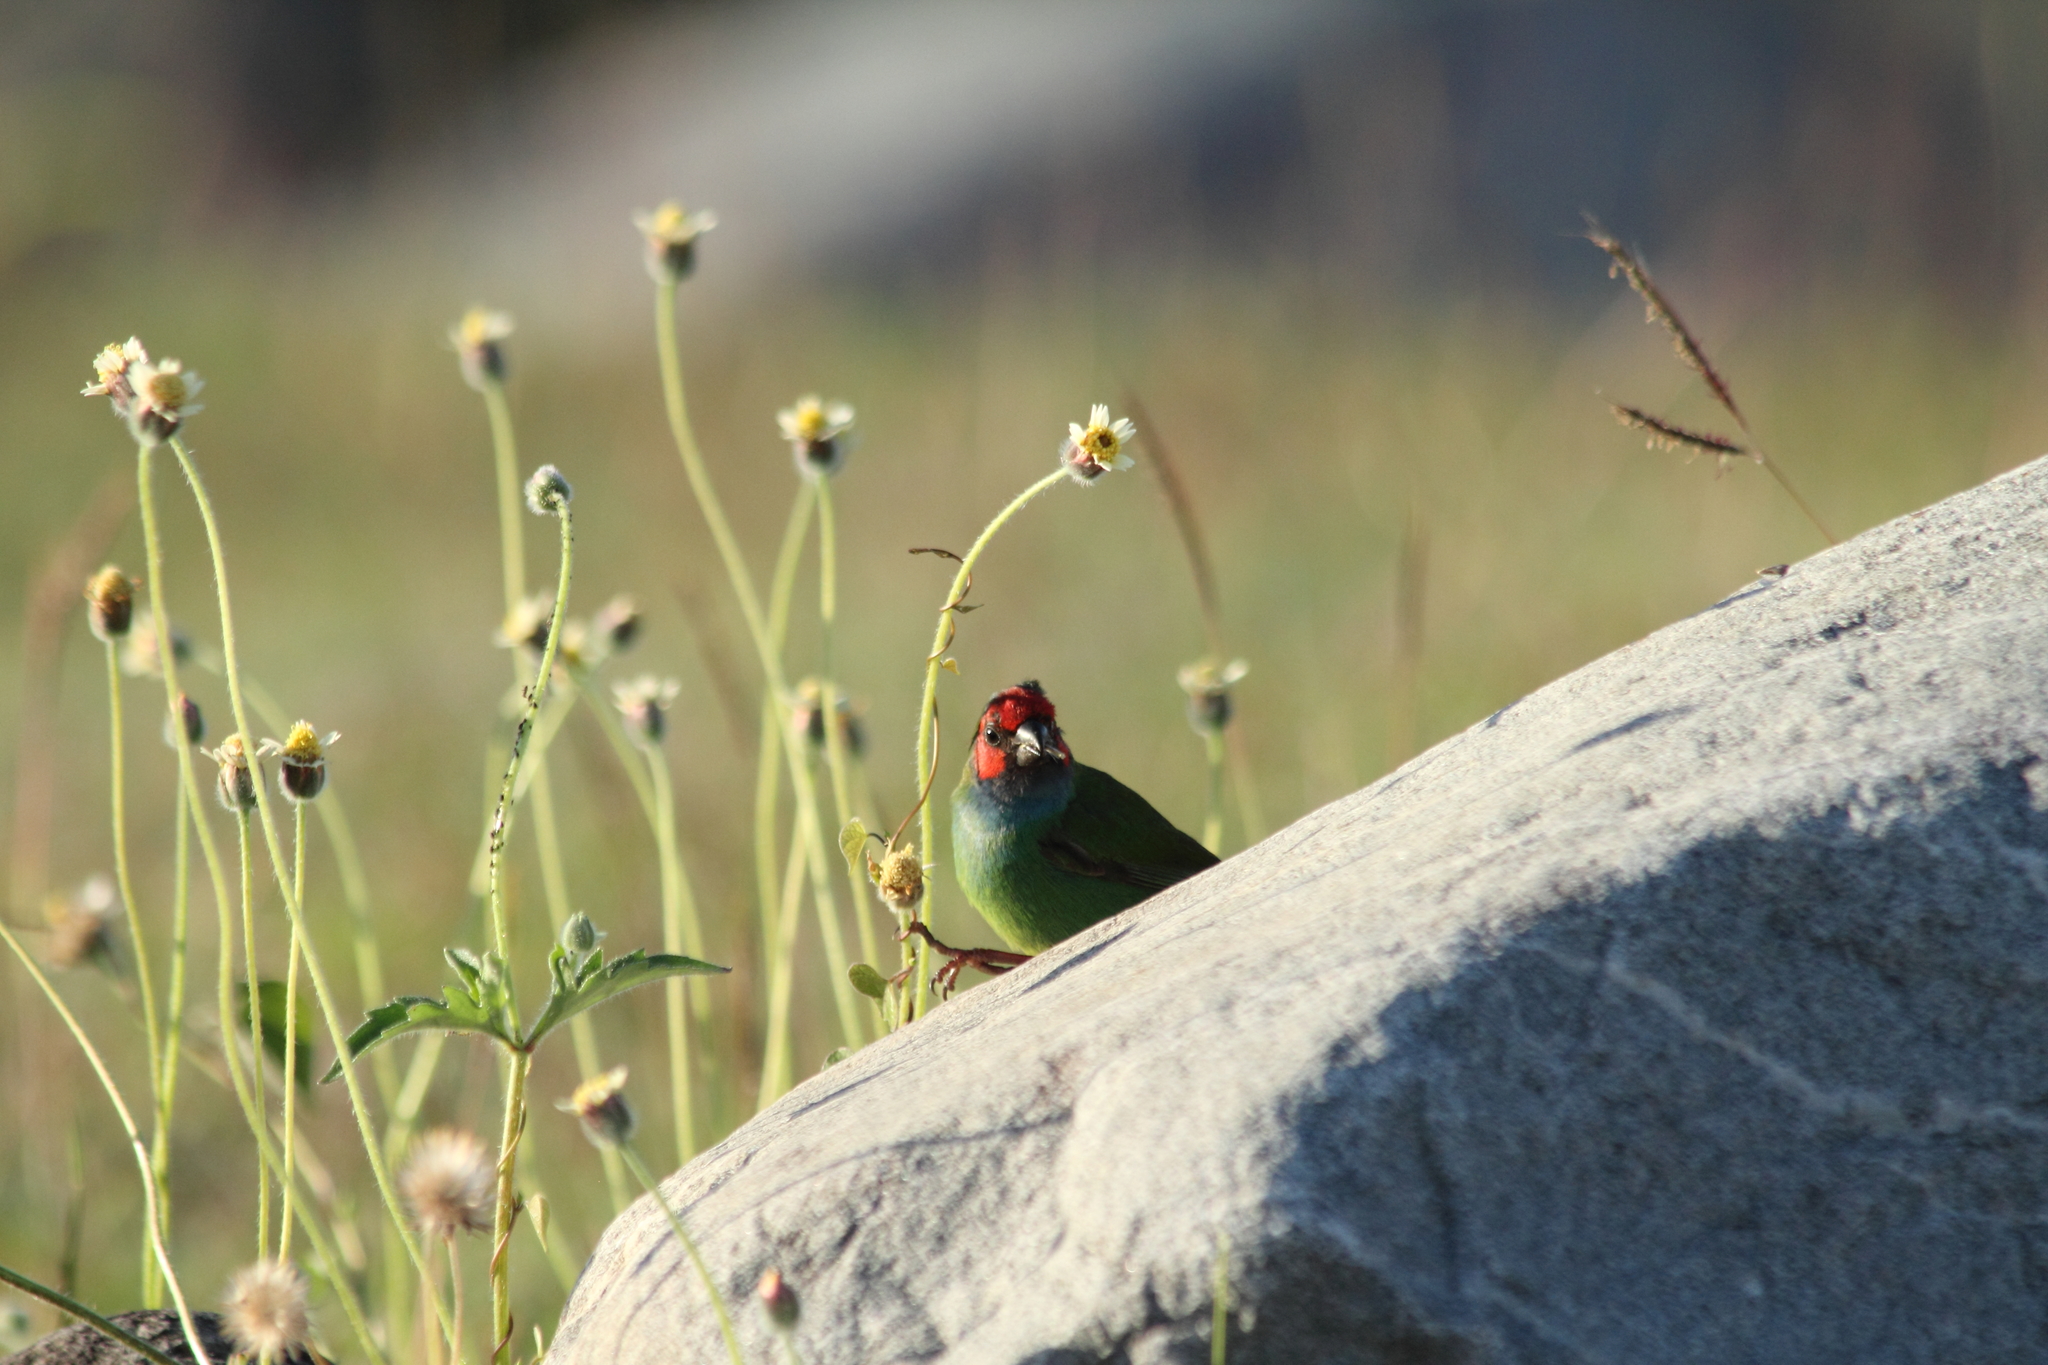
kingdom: Animalia
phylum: Chordata
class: Aves
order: Passeriformes
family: Estrildidae
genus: Erythrura
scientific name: Erythrura pealii
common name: Fiji parrotfinch
